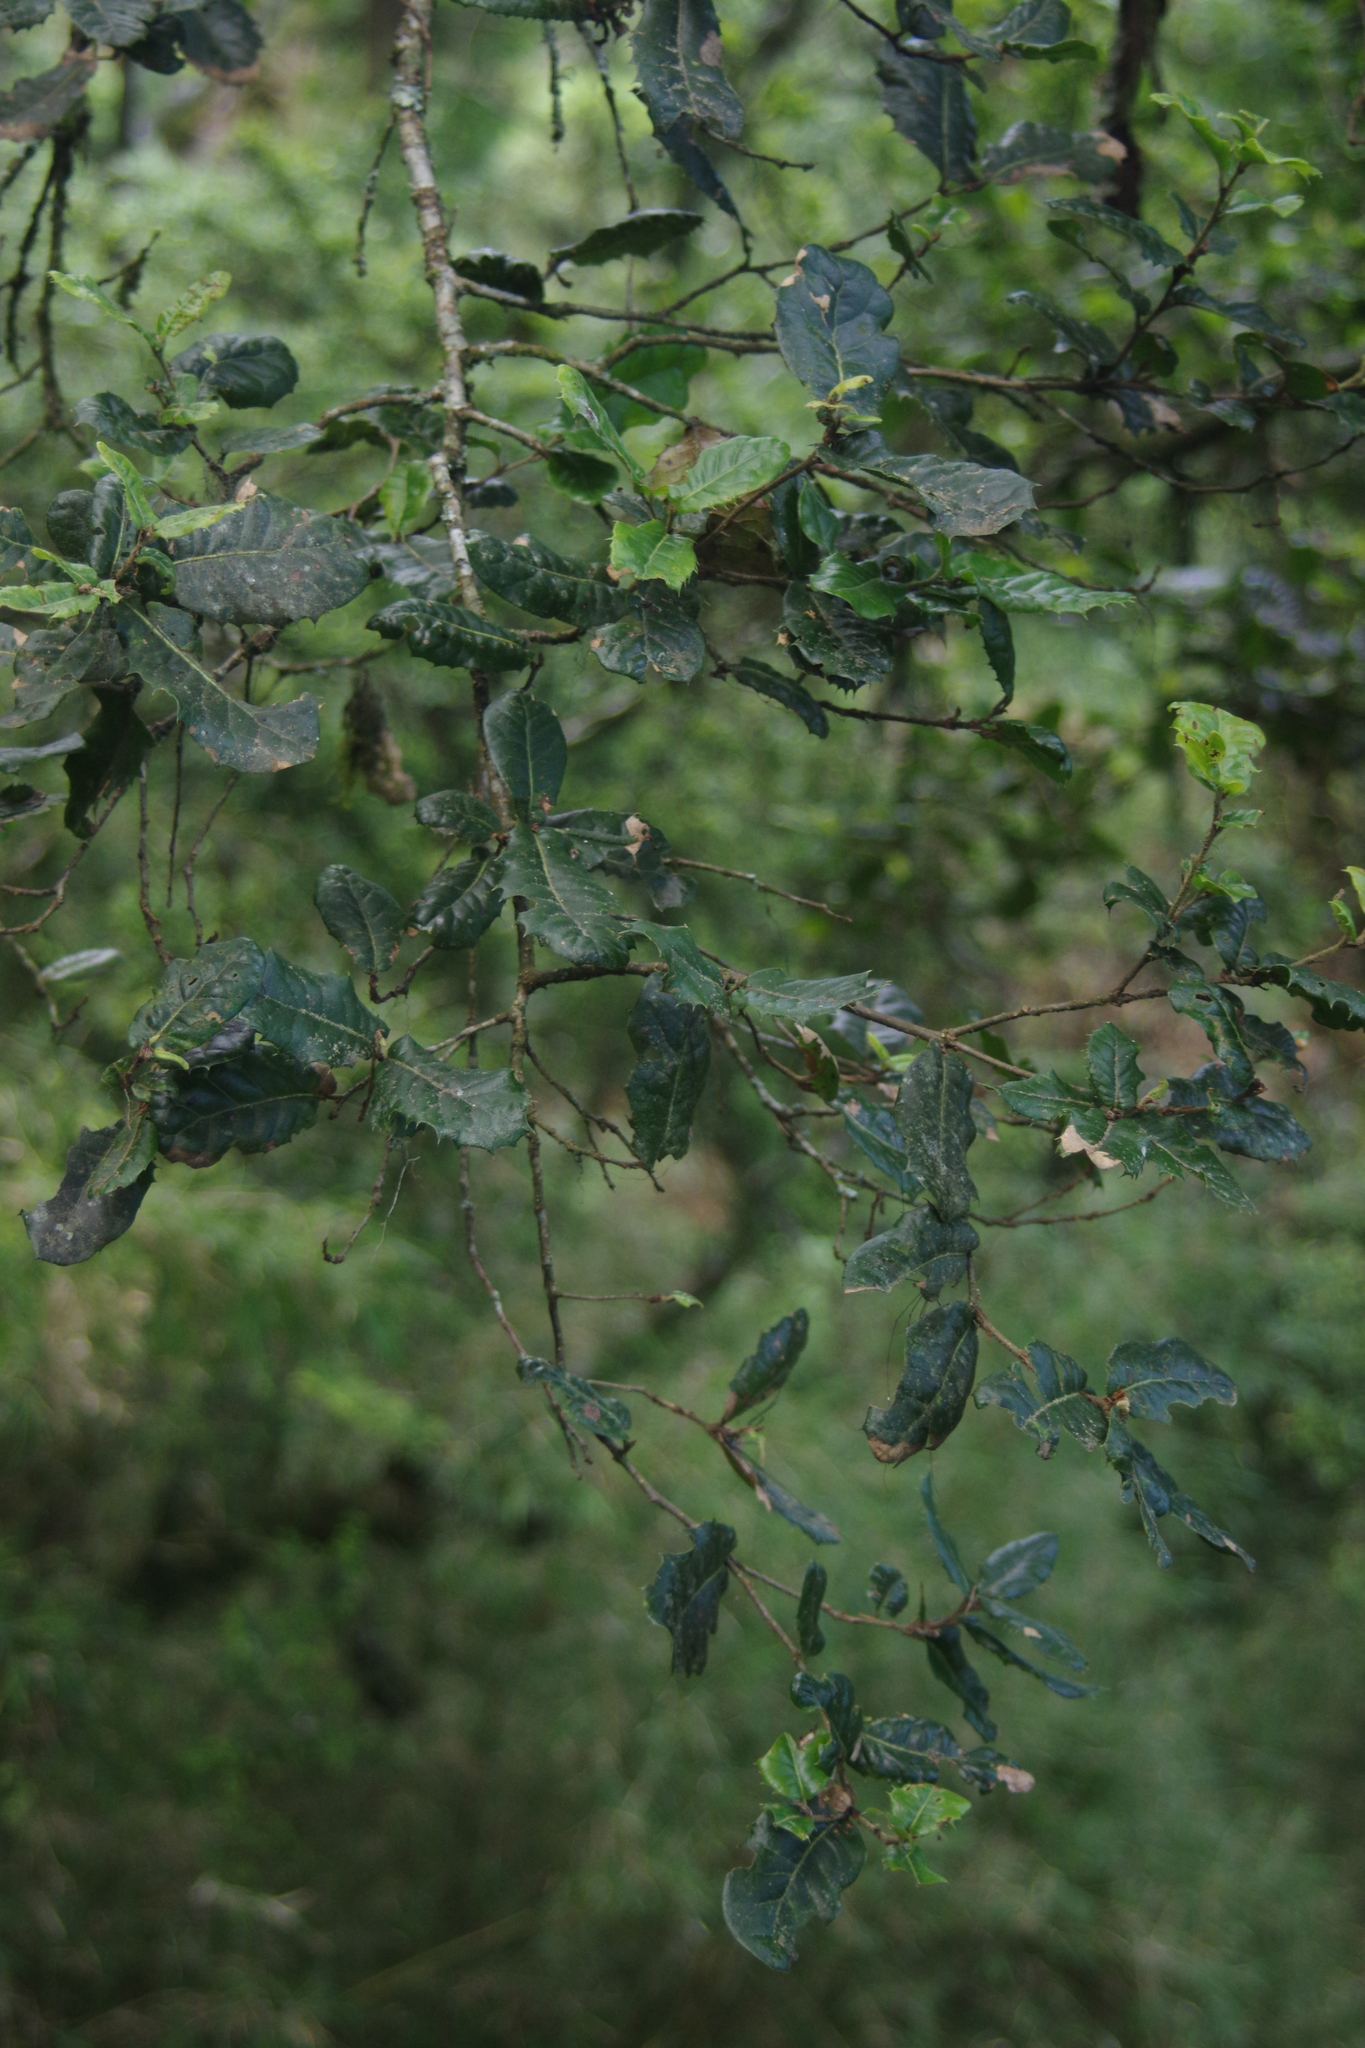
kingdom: Plantae
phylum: Tracheophyta
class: Magnoliopsida
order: Fagales
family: Fagaceae
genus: Quercus
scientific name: Quercus spinosa
